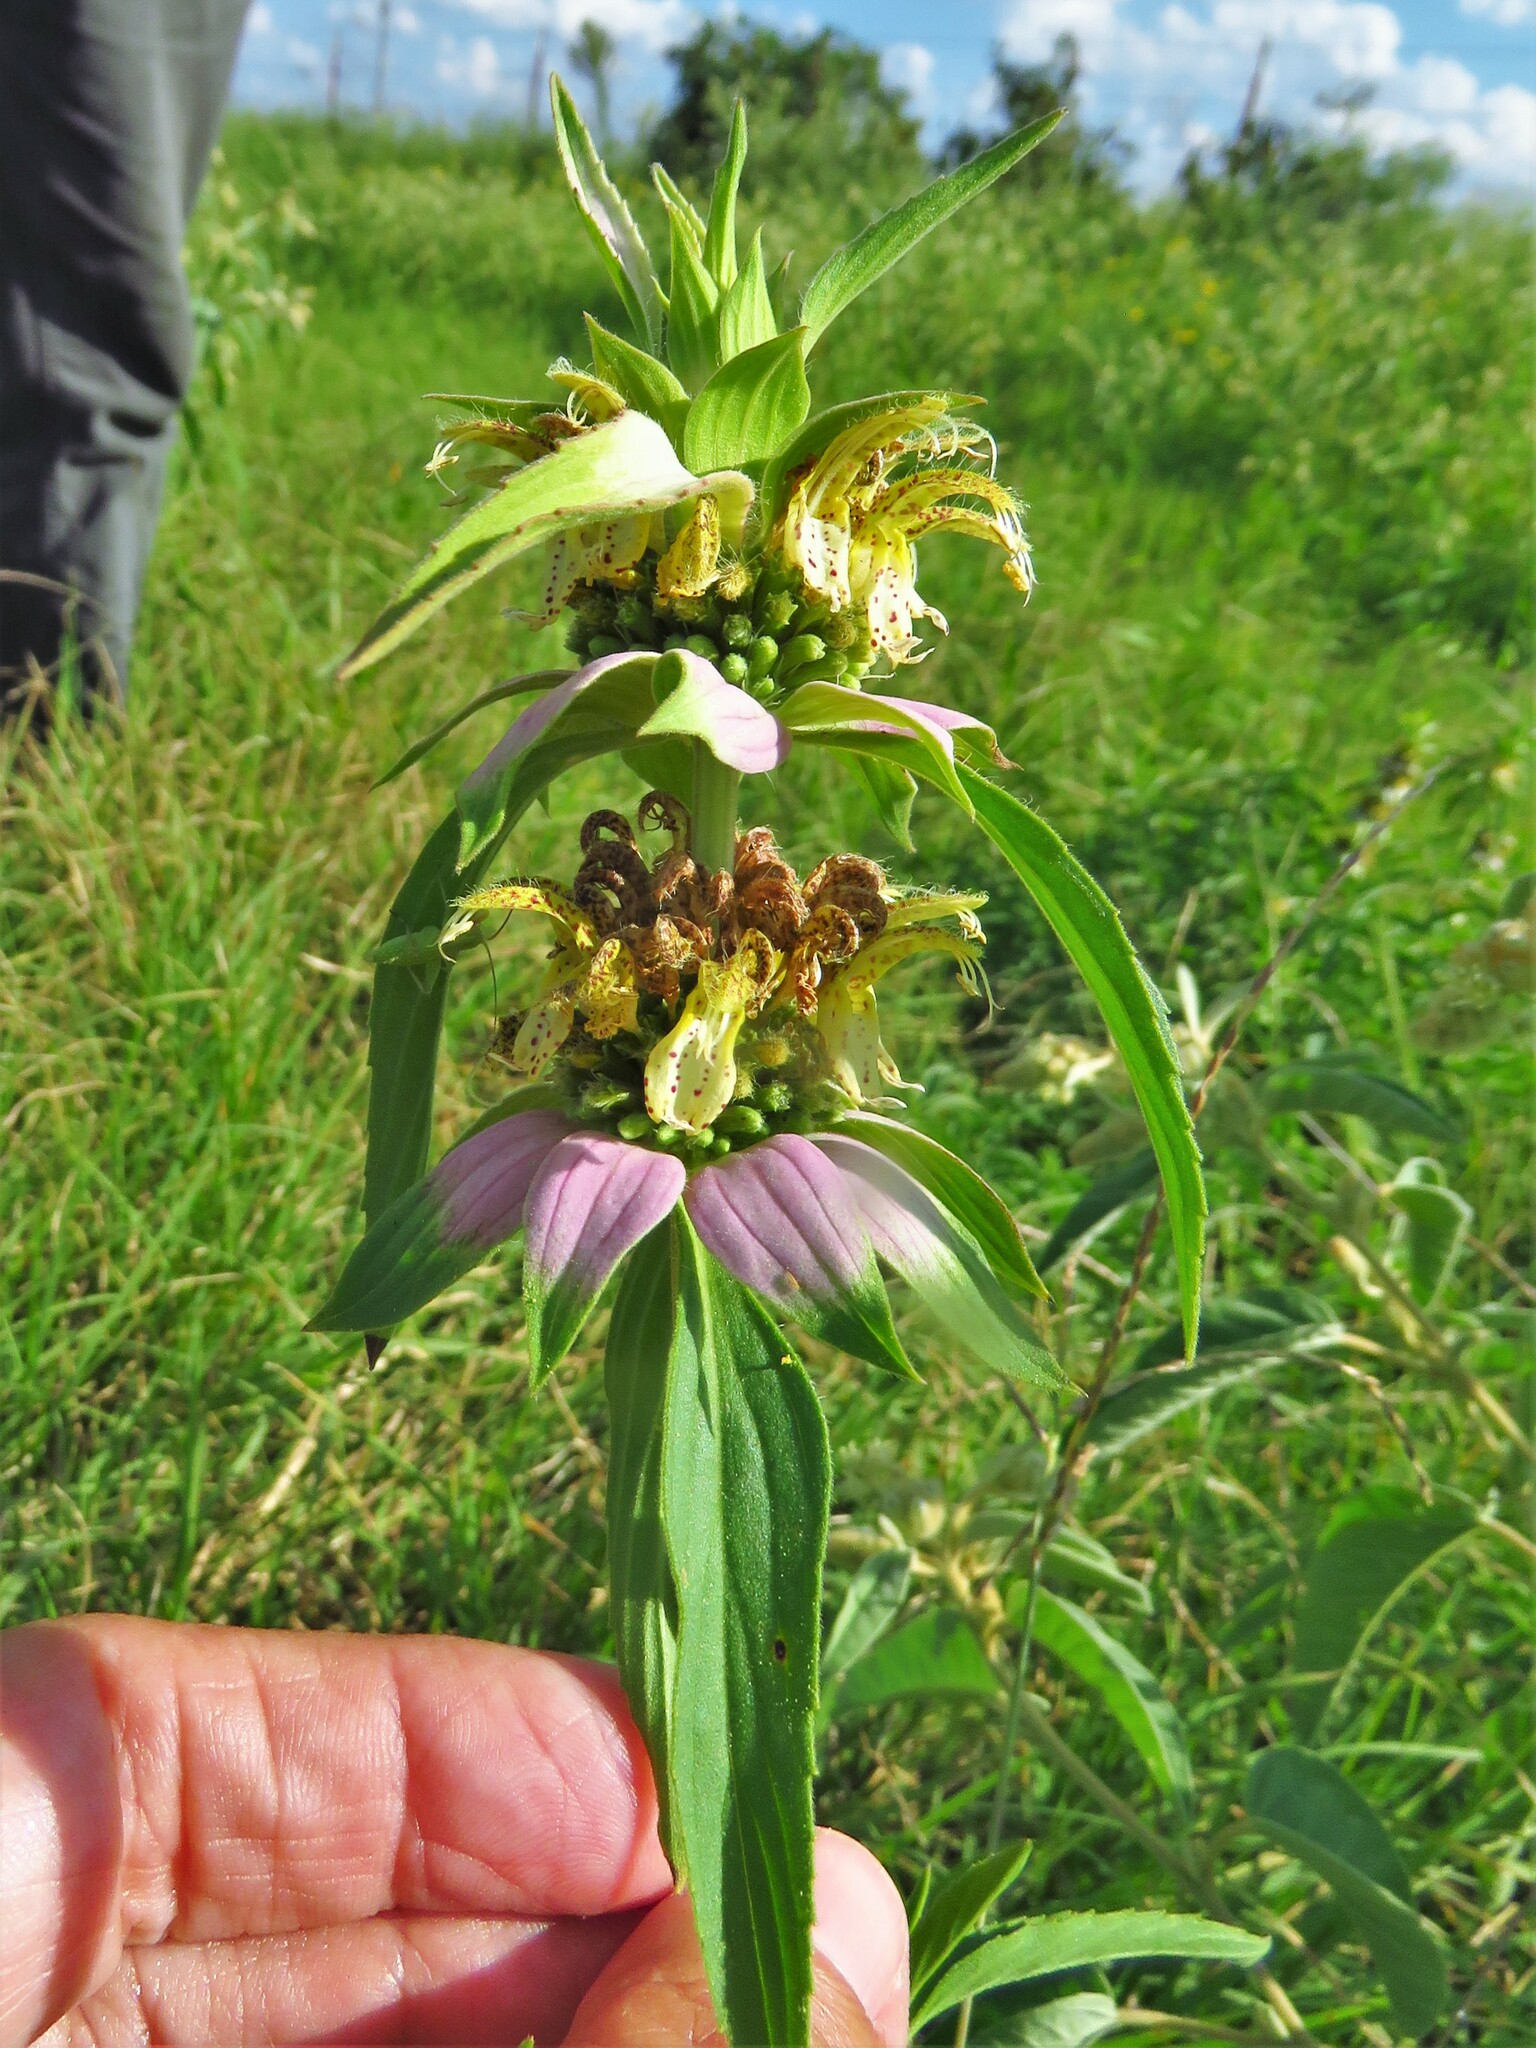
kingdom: Plantae
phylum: Tracheophyta
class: Magnoliopsida
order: Lamiales
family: Lamiaceae
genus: Monarda
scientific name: Monarda punctata
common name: Dotted monarda
